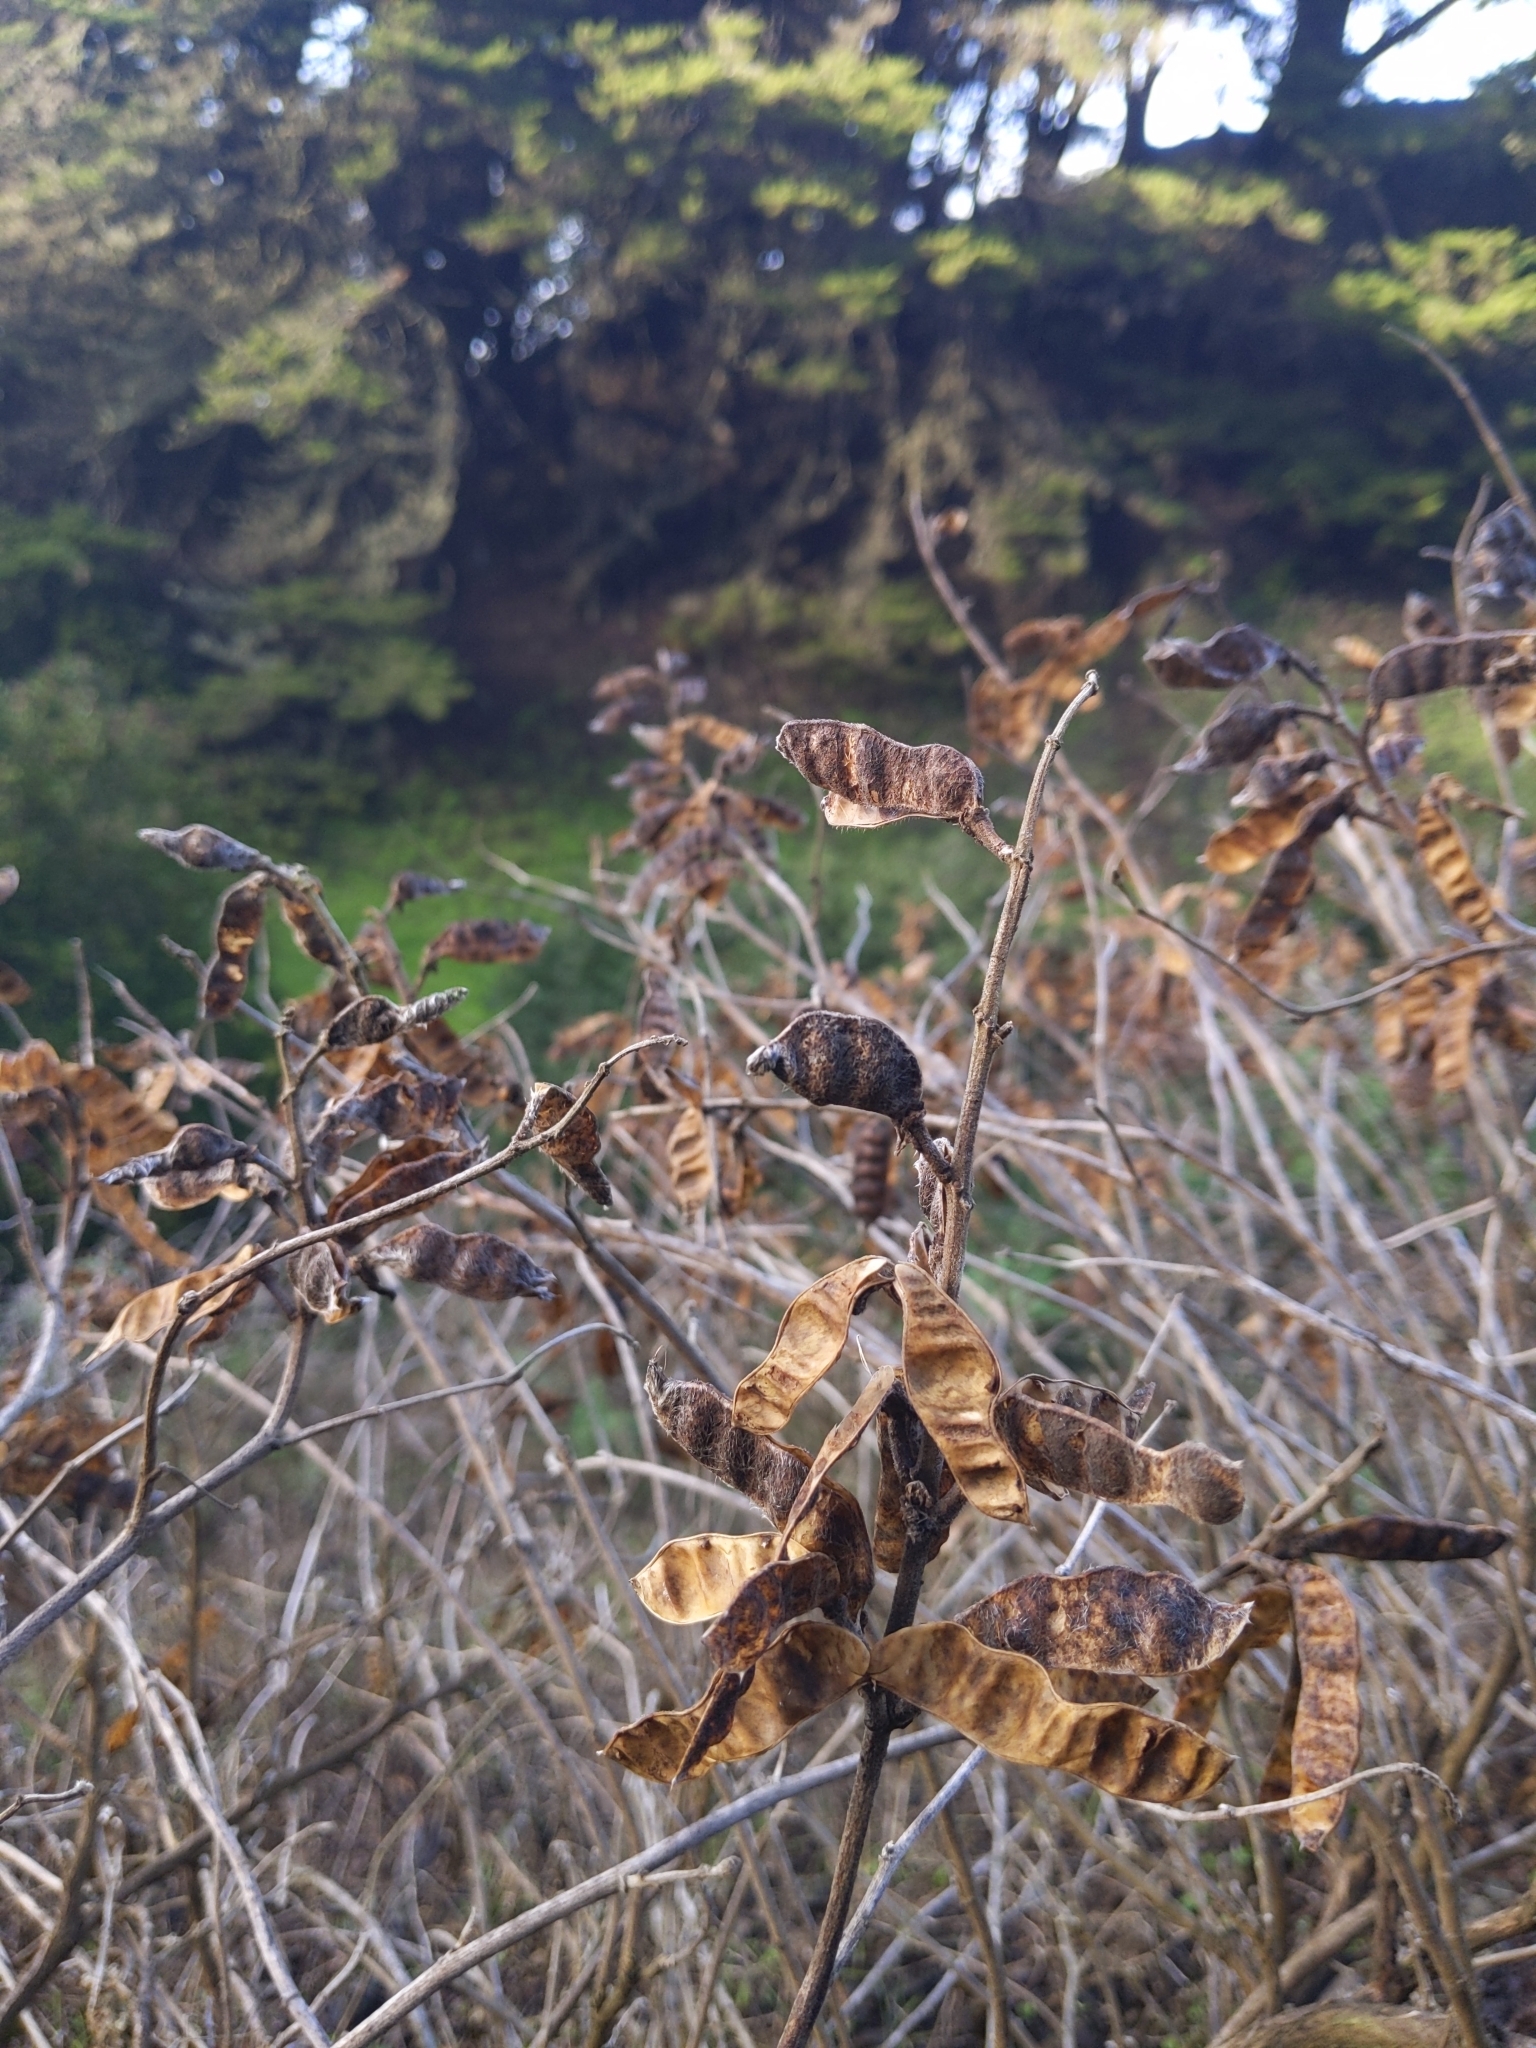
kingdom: Plantae
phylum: Tracheophyta
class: Magnoliopsida
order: Fabales
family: Fabaceae
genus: Lupinus
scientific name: Lupinus arboreus
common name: Yellow bush lupine
